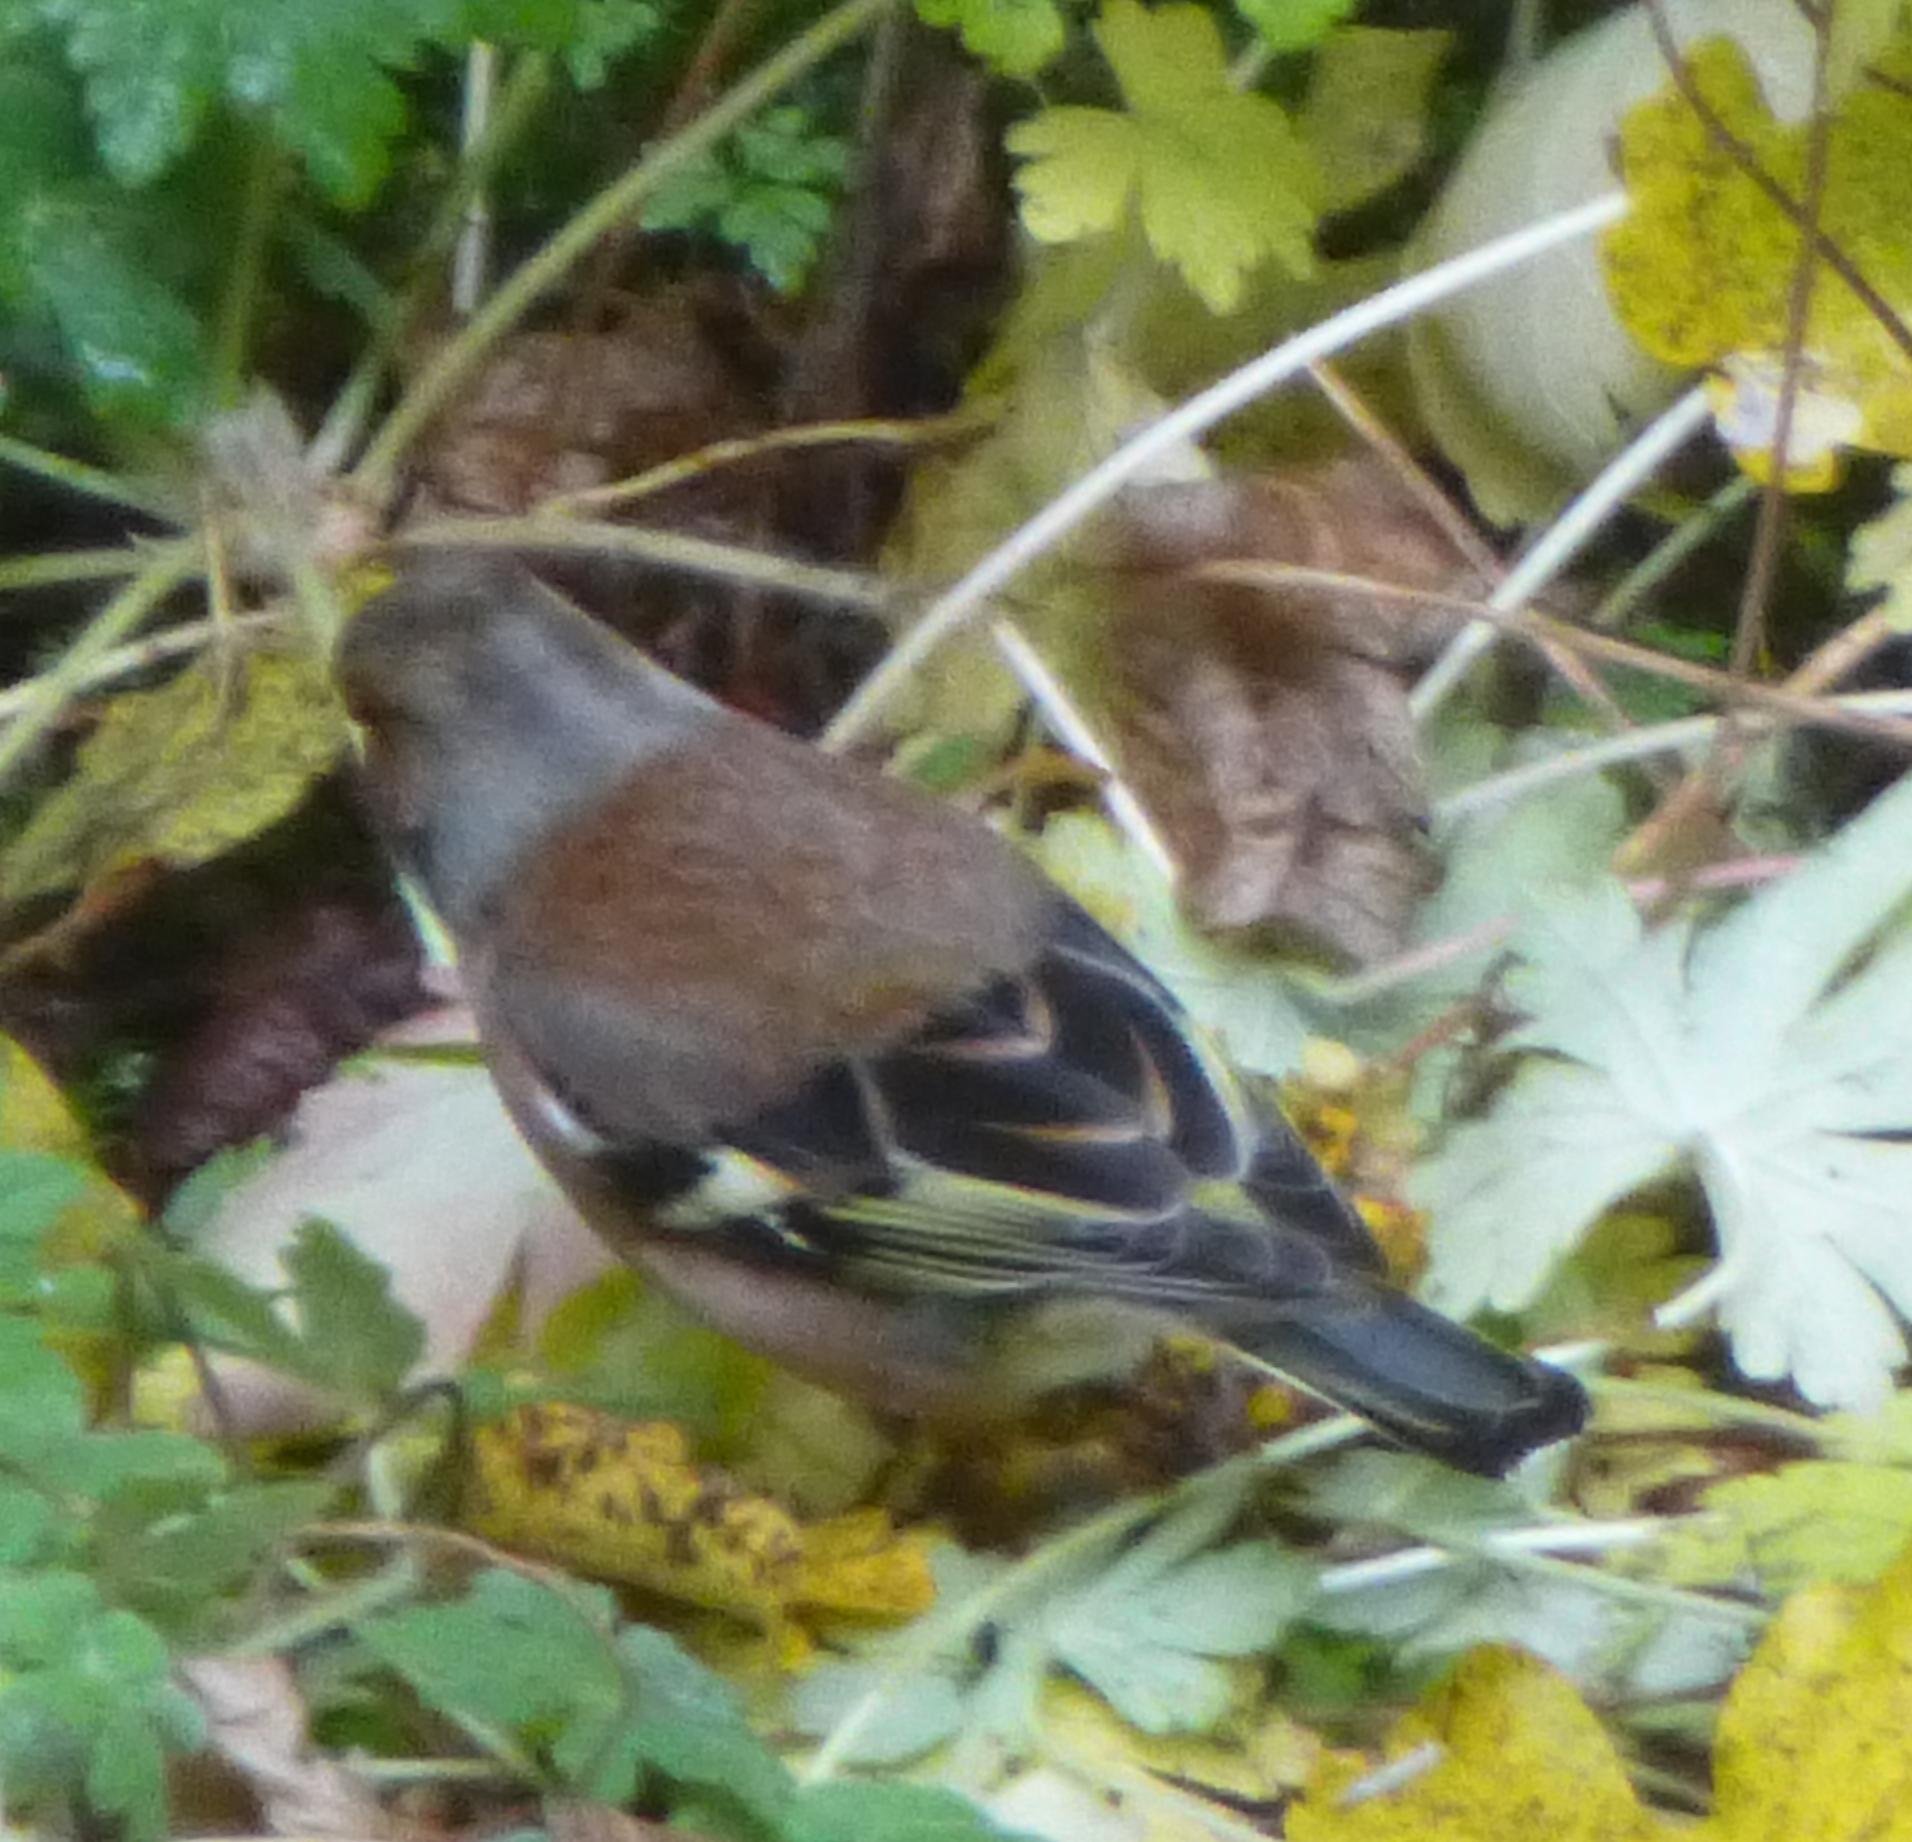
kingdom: Animalia
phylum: Chordata
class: Aves
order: Passeriformes
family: Fringillidae
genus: Fringilla
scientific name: Fringilla coelebs
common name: Common chaffinch
